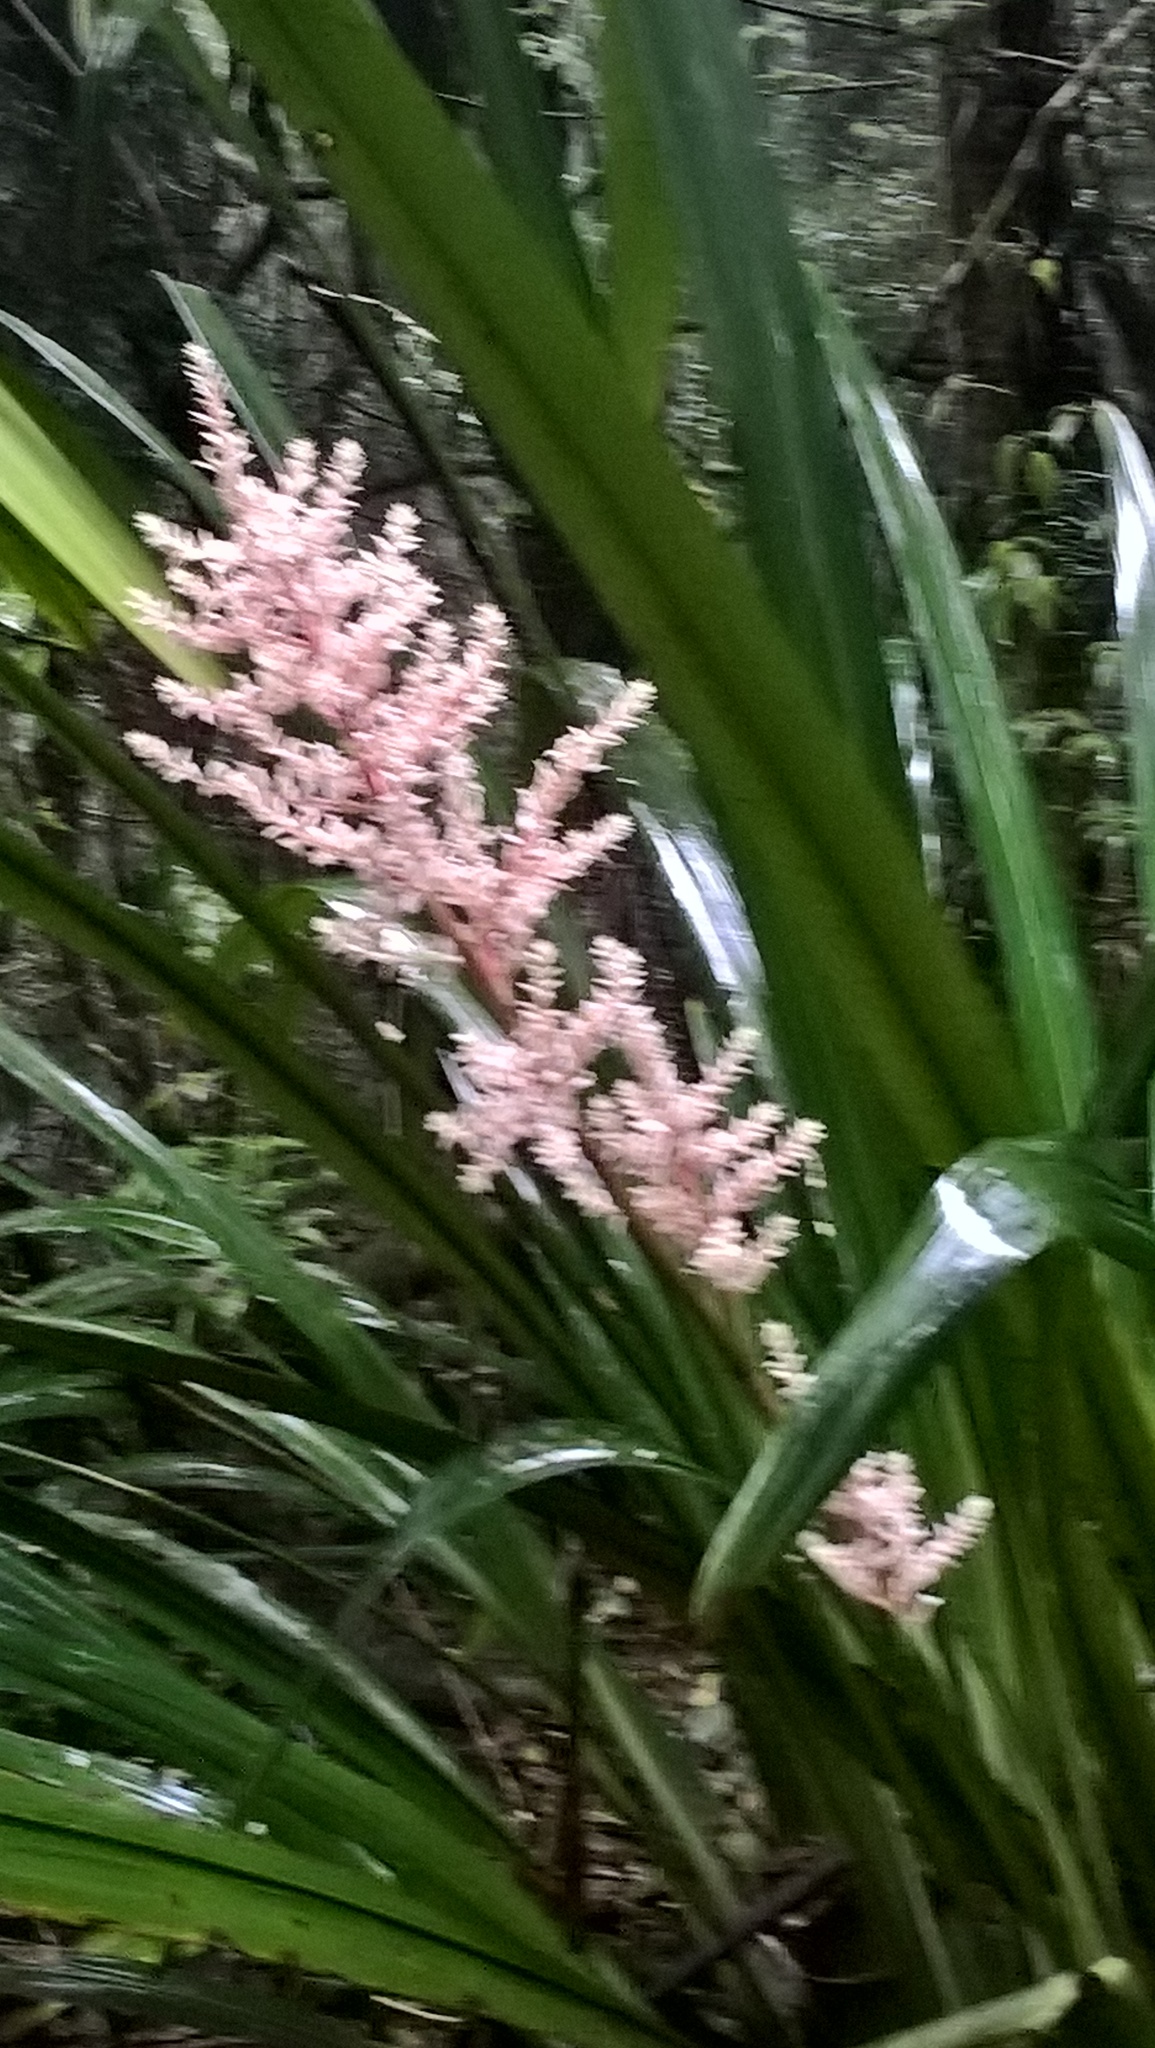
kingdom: Plantae
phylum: Tracheophyta
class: Liliopsida
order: Commelinales
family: Philydraceae
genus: Helmholtzia
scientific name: Helmholtzia glaberrima
